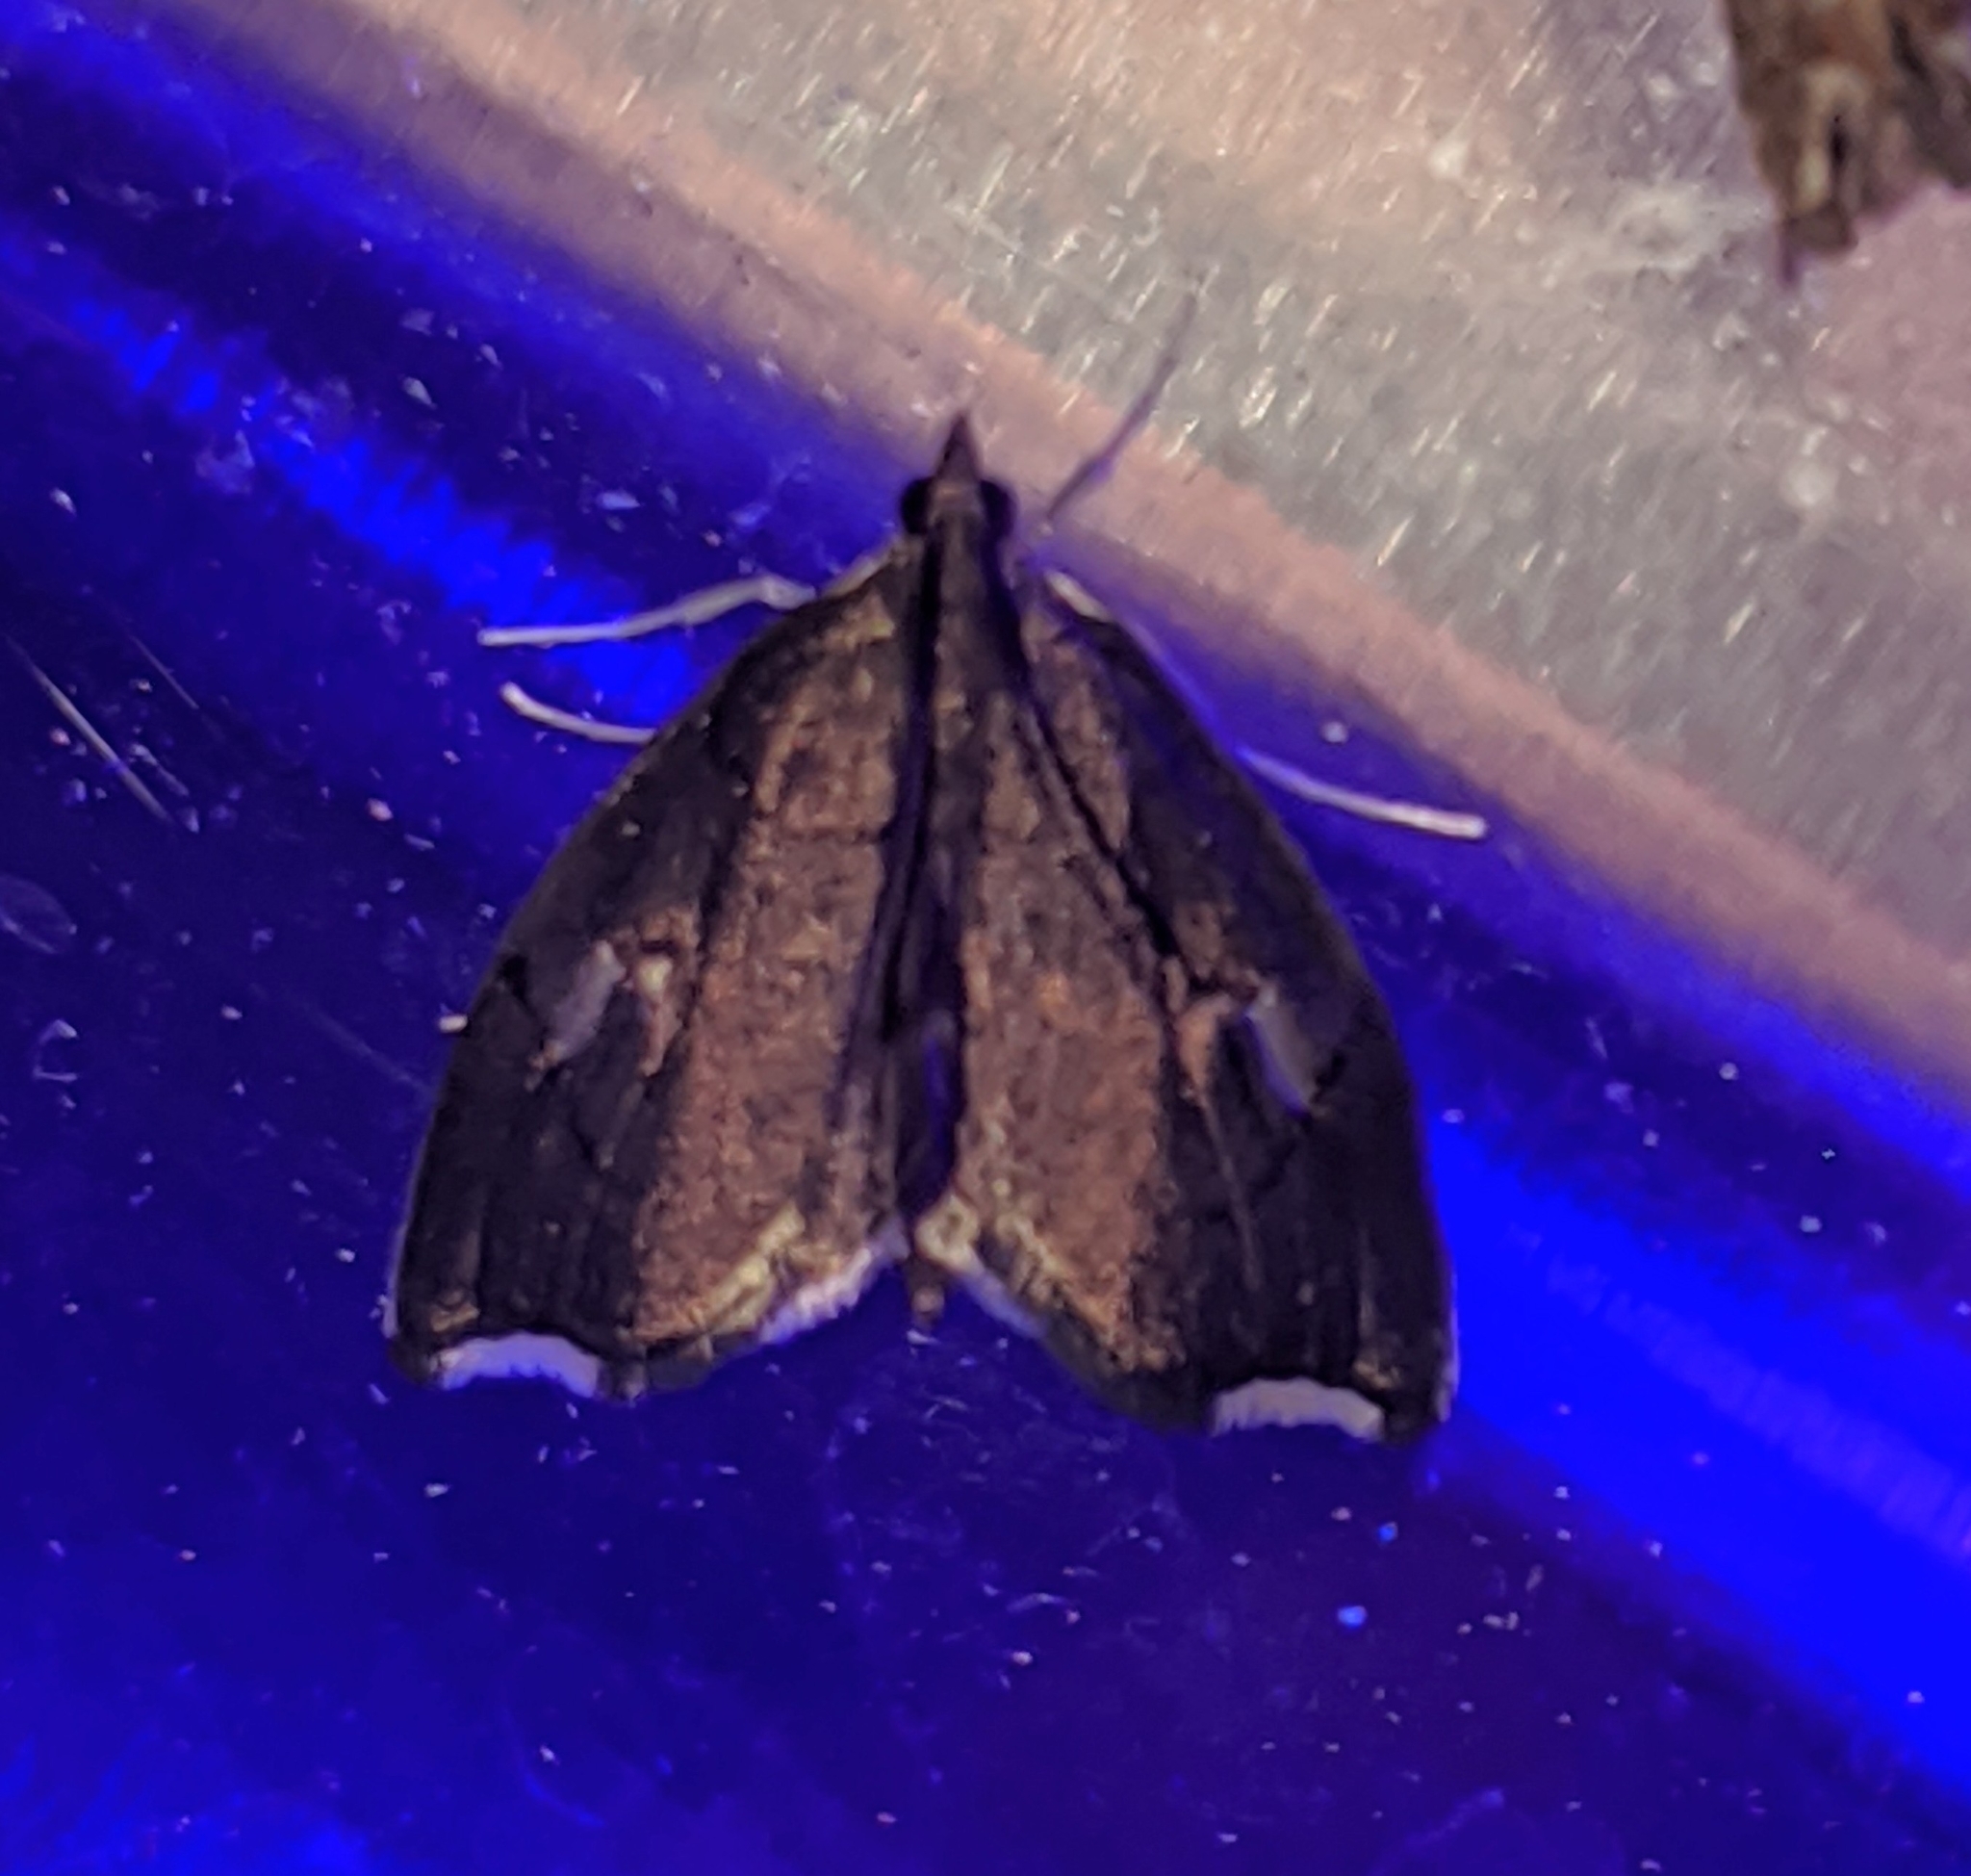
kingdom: Animalia
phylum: Arthropoda
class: Insecta
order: Lepidoptera
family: Crambidae
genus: Perispasta
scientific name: Perispasta caeculalis
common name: Titian peale's moth
